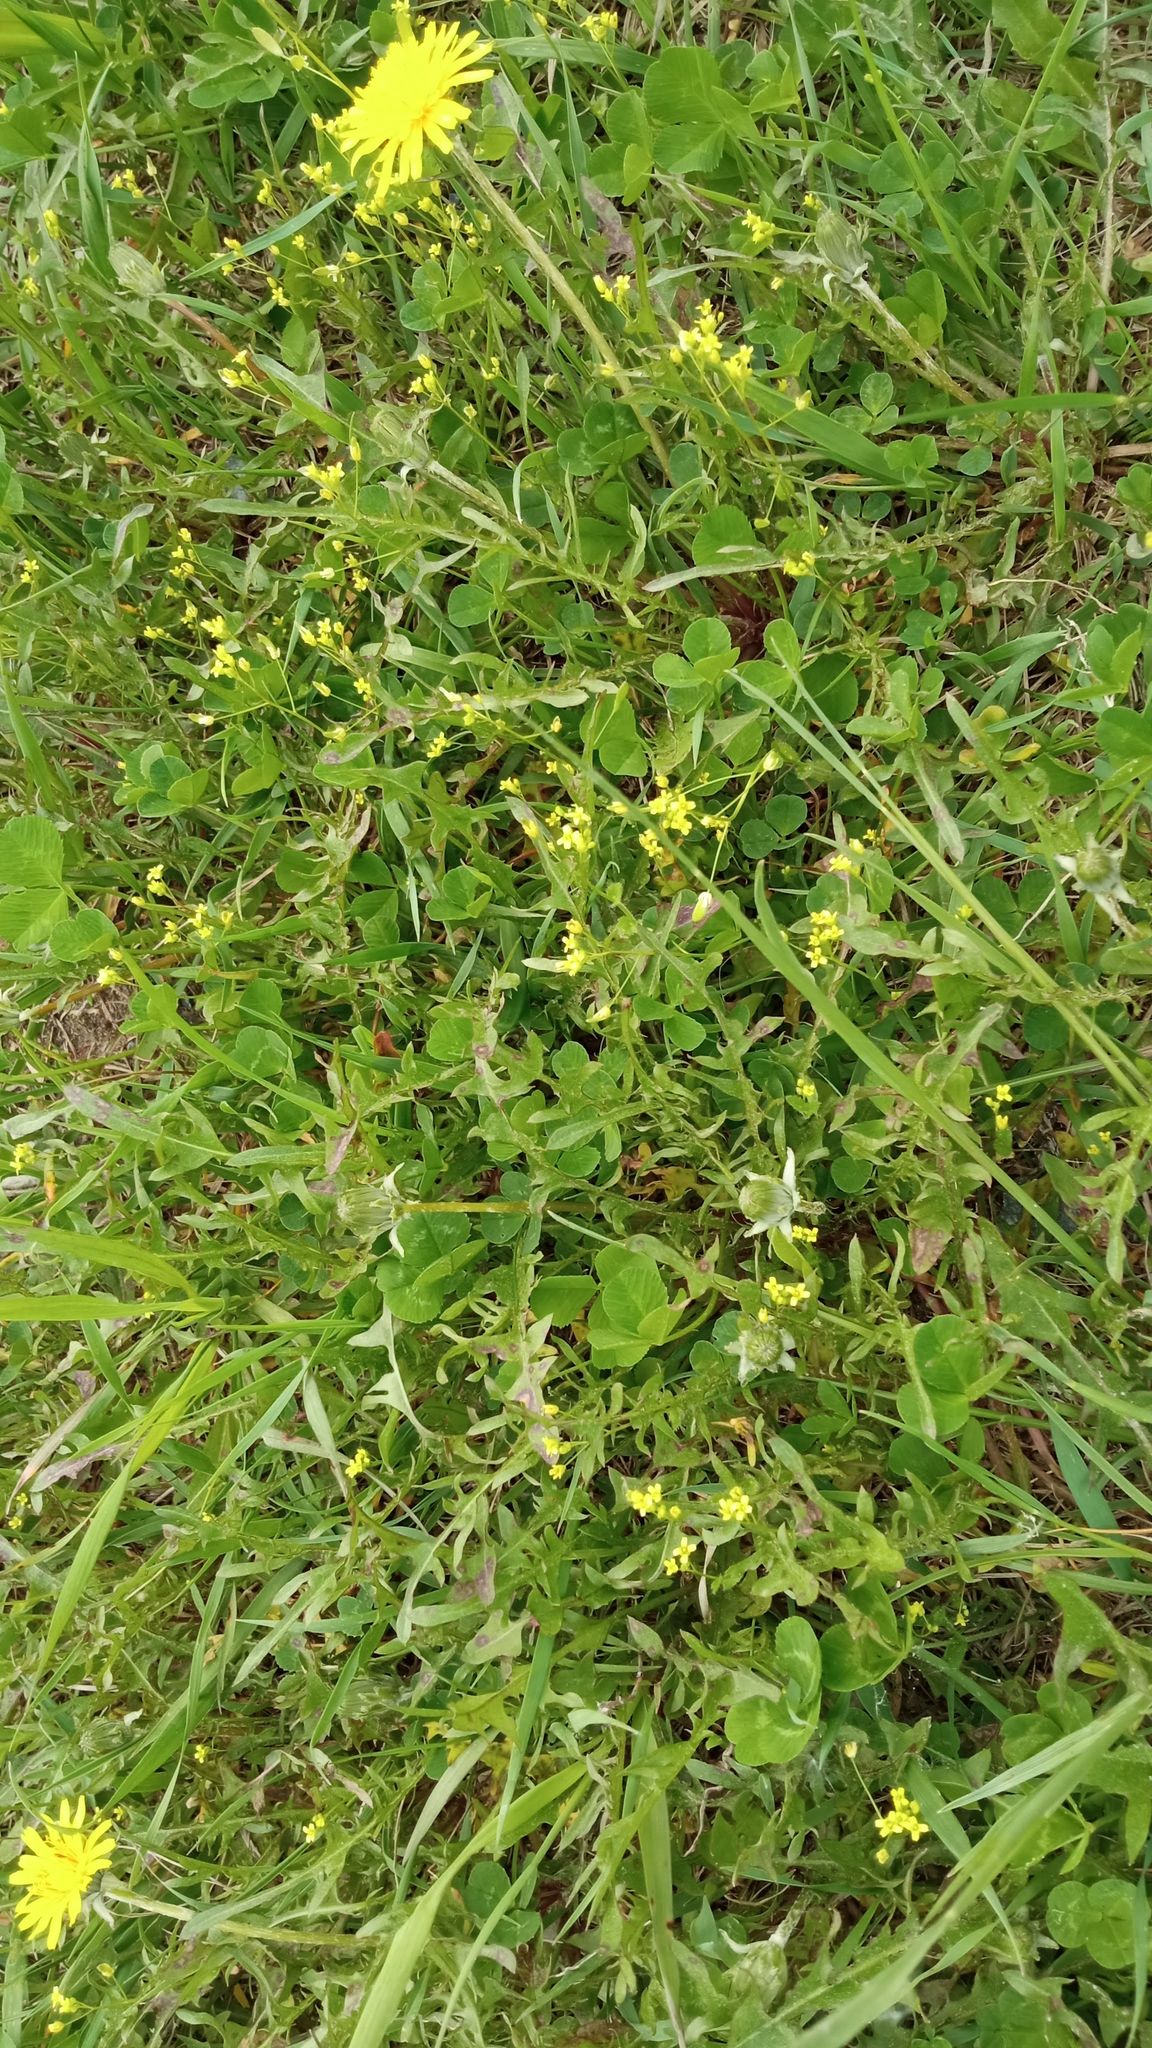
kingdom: Plantae
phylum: Tracheophyta
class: Magnoliopsida
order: Brassicales
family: Brassicaceae
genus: Draba
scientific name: Draba nemorosa
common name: Wood whitlow-grass
